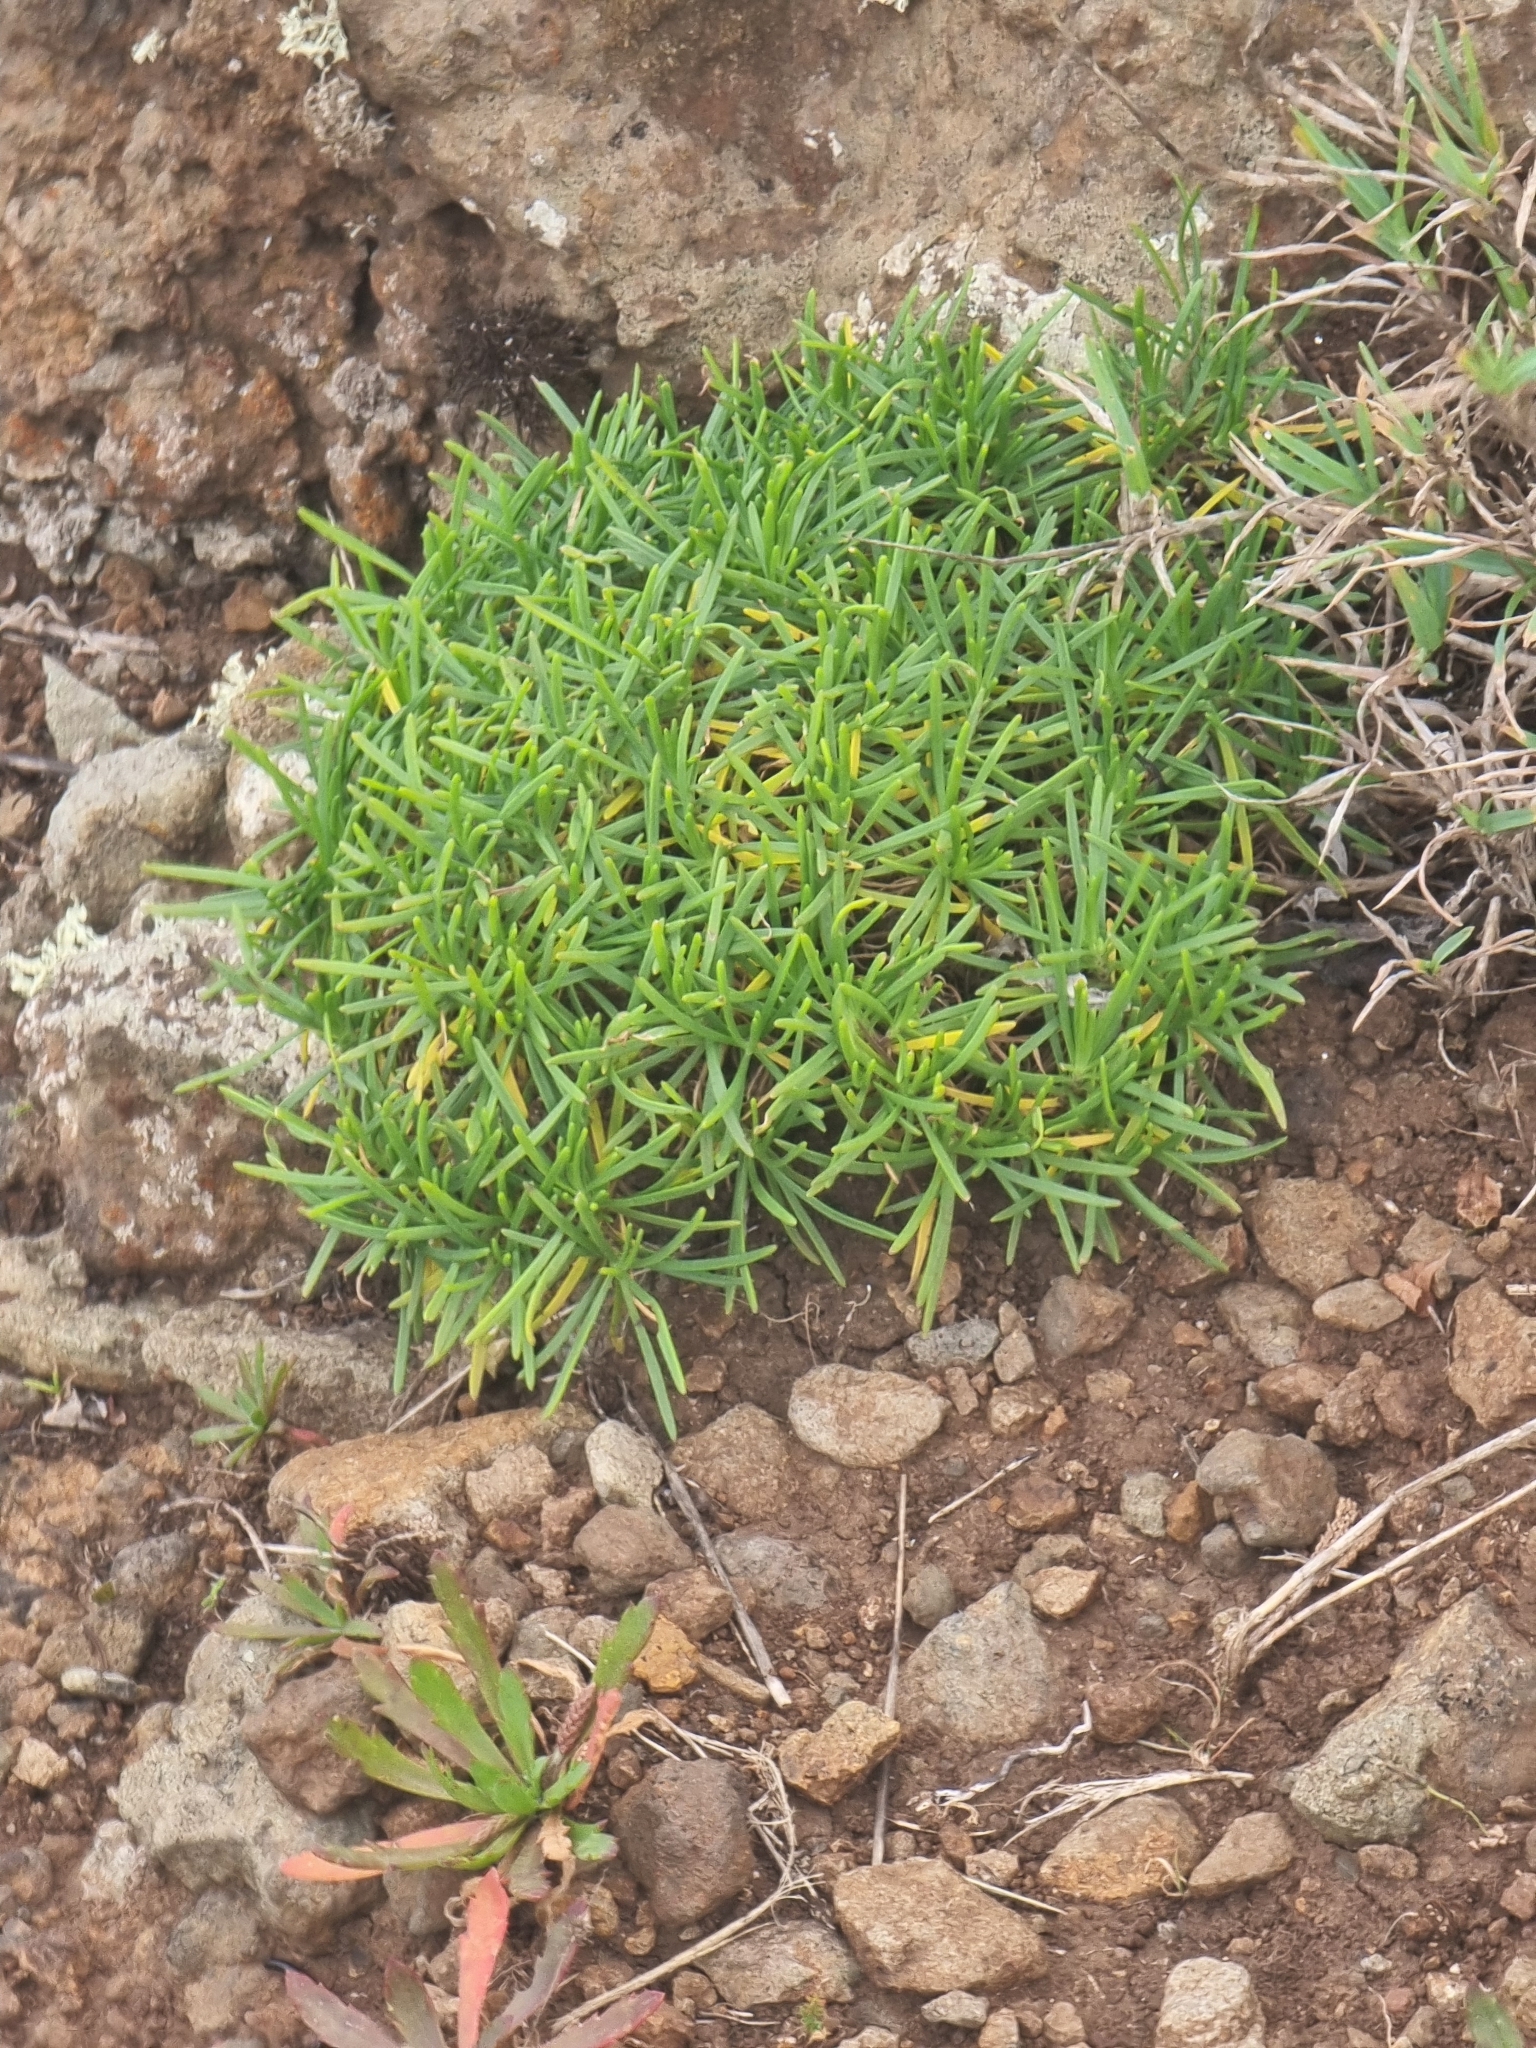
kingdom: Plantae
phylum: Tracheophyta
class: Magnoliopsida
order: Lamiales
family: Plantaginaceae
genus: Plantago
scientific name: Plantago arborescens
